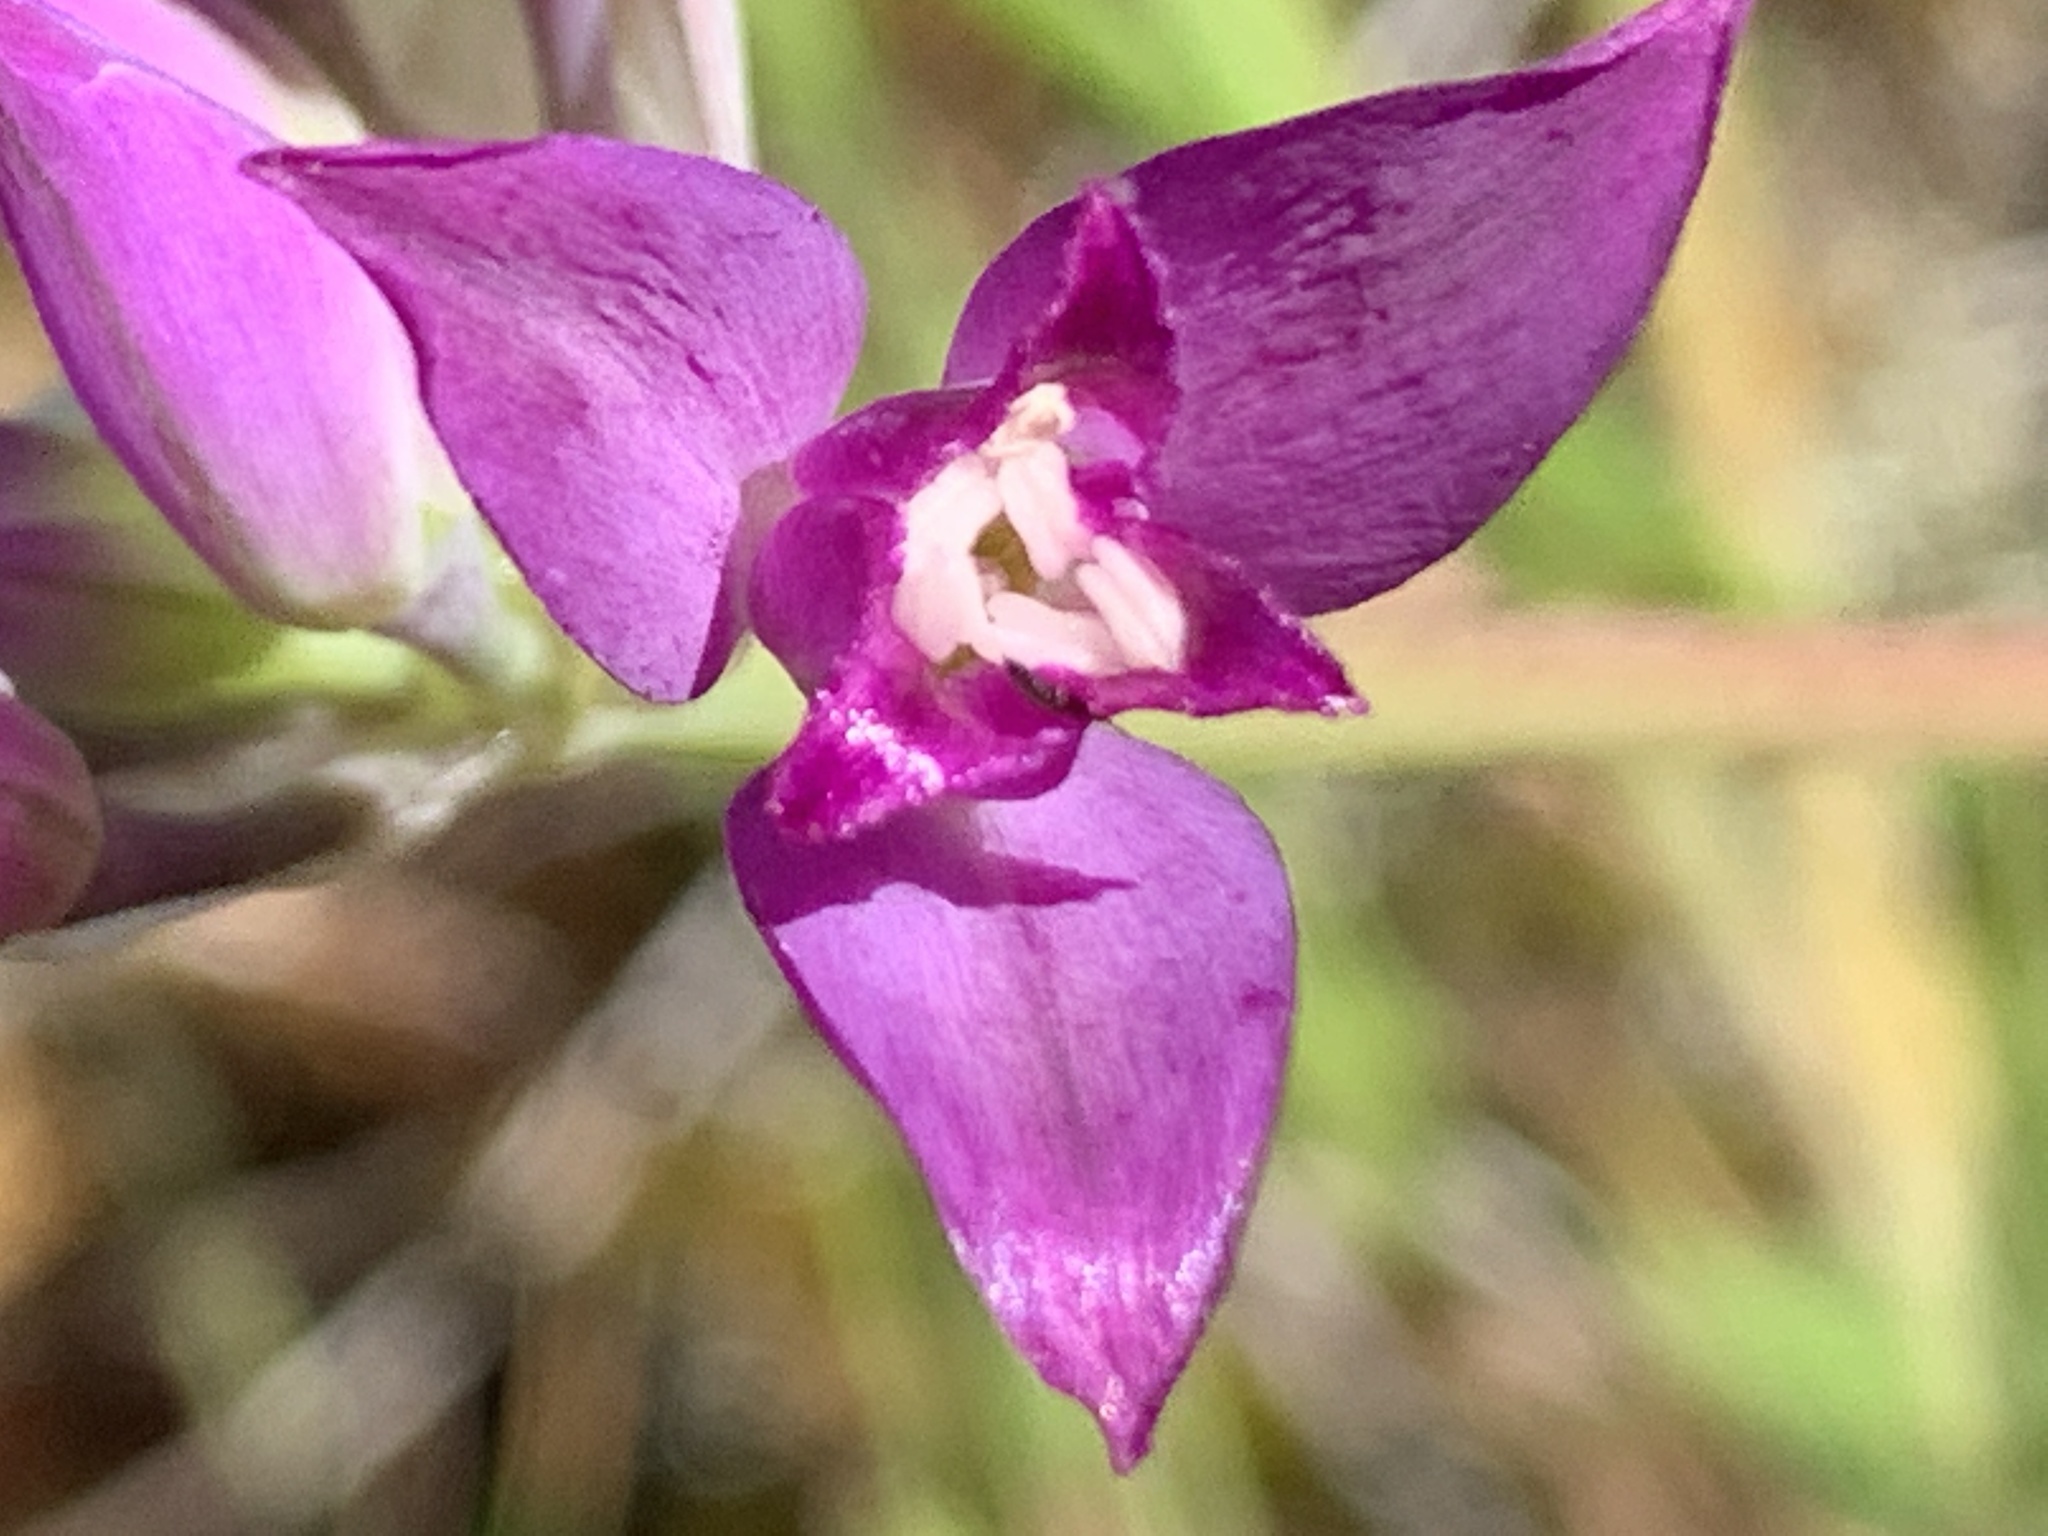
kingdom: Plantae
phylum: Tracheophyta
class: Liliopsida
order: Asparagales
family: Amaryllidaceae
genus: Allium
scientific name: Allium acuminatum
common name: Hooker's onion
